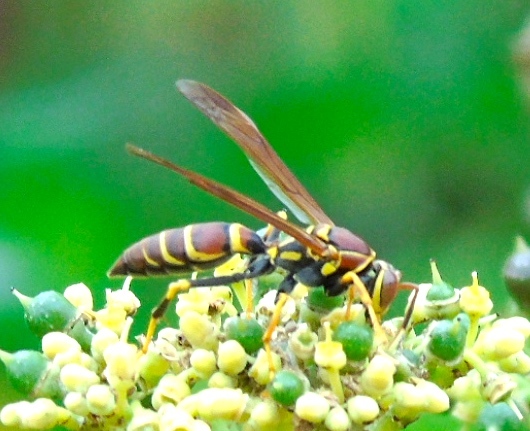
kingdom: Animalia
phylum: Arthropoda
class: Insecta
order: Hymenoptera
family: Eumenidae
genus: Polistes
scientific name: Polistes instabilis
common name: Unstable paper wasp
